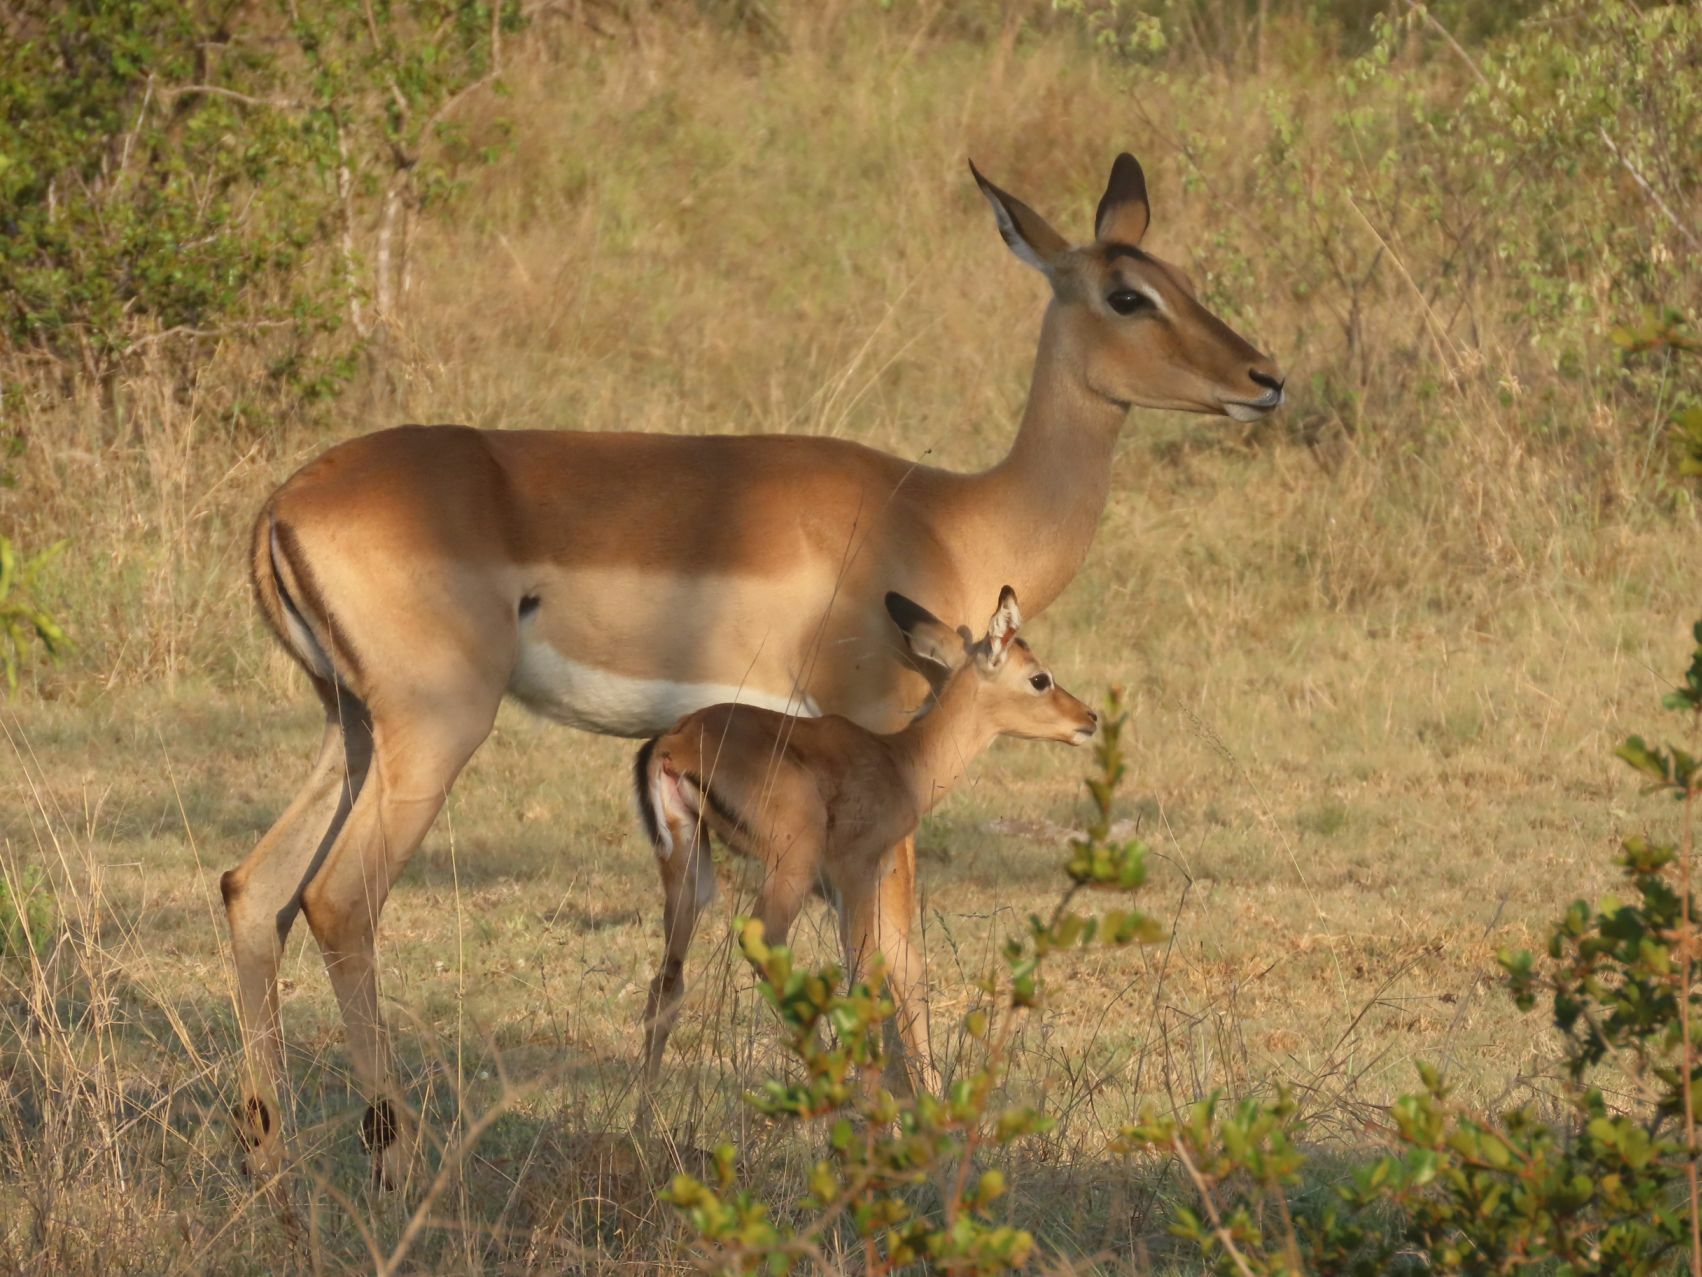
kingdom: Animalia
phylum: Chordata
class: Mammalia
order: Artiodactyla
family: Bovidae
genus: Aepyceros
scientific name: Aepyceros melampus
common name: Impala
